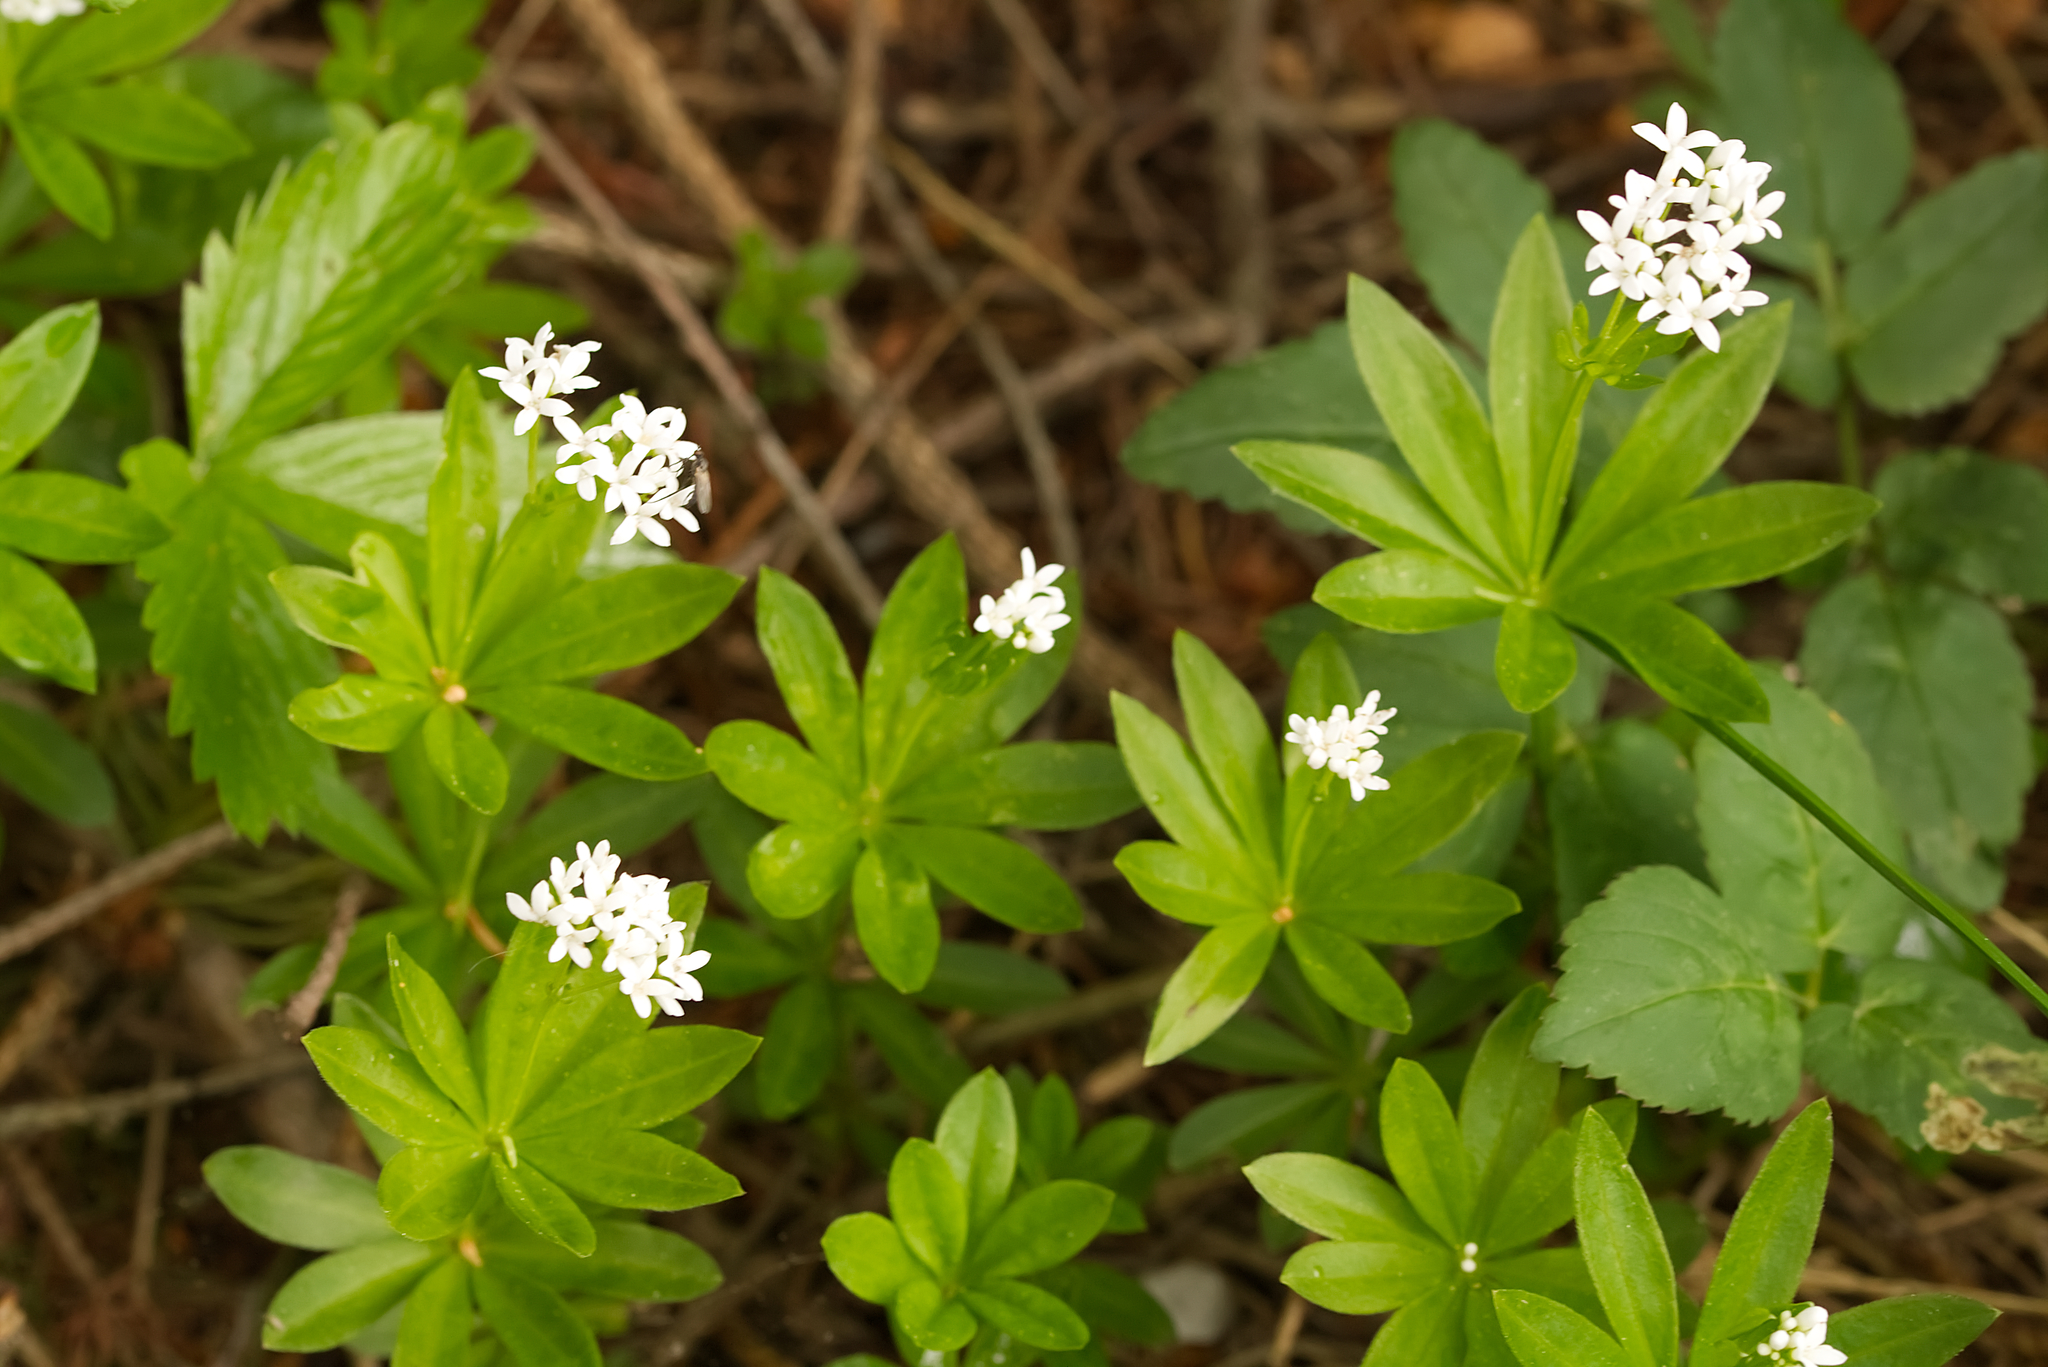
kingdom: Plantae
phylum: Tracheophyta
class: Magnoliopsida
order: Gentianales
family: Rubiaceae
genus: Galium
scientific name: Galium odoratum
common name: Sweet woodruff
